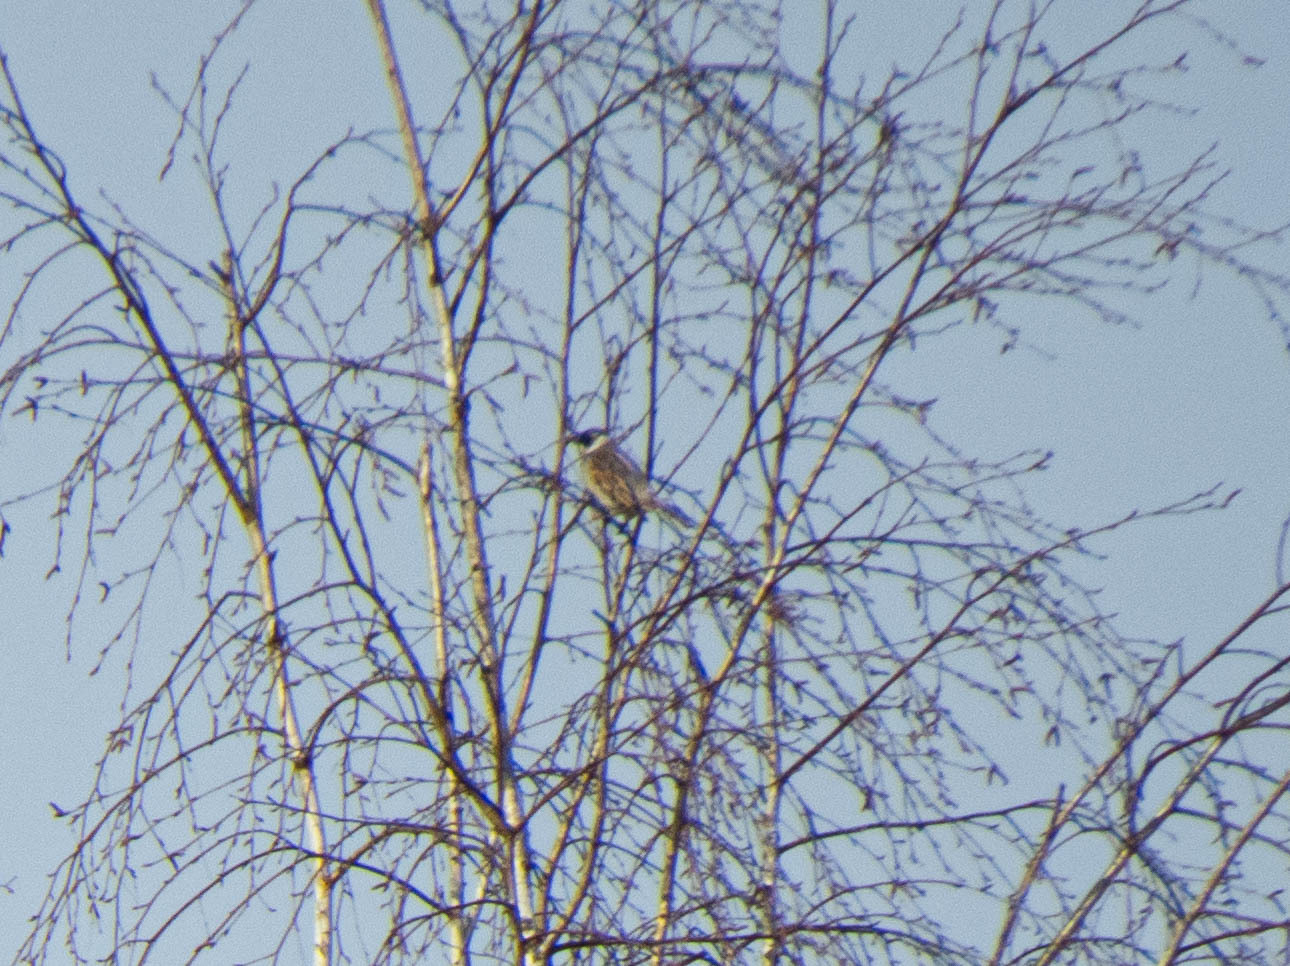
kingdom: Animalia
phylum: Chordata
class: Aves
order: Passeriformes
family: Emberizidae
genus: Emberiza
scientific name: Emberiza schoeniclus
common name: Reed bunting
